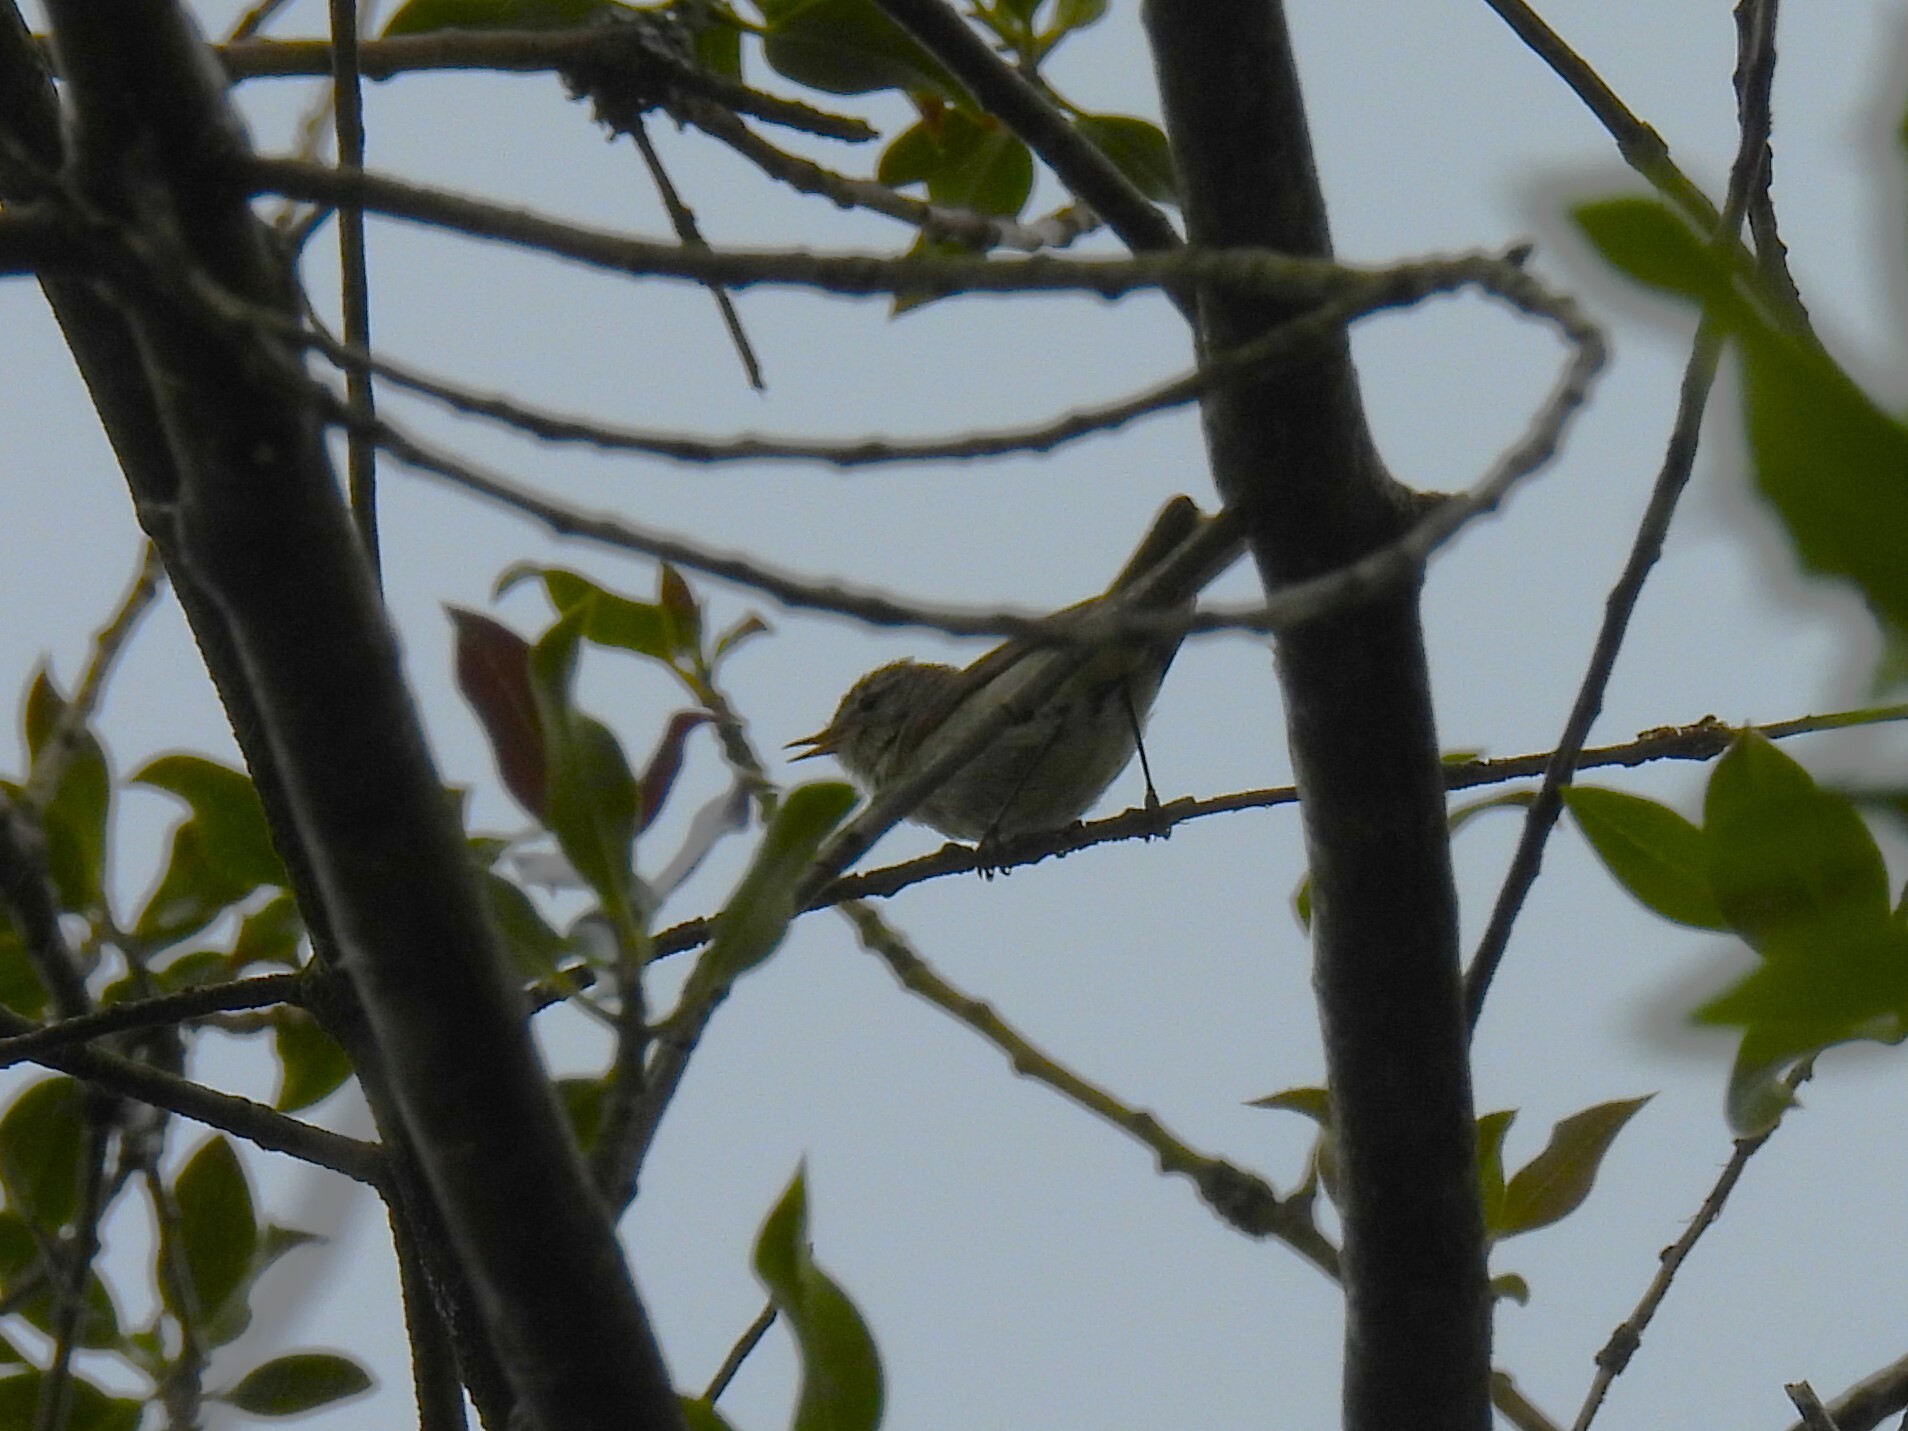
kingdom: Animalia
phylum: Chordata
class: Aves
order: Passeriformes
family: Phylloscopidae
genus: Phylloscopus
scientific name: Phylloscopus collybita
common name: Common chiffchaff
